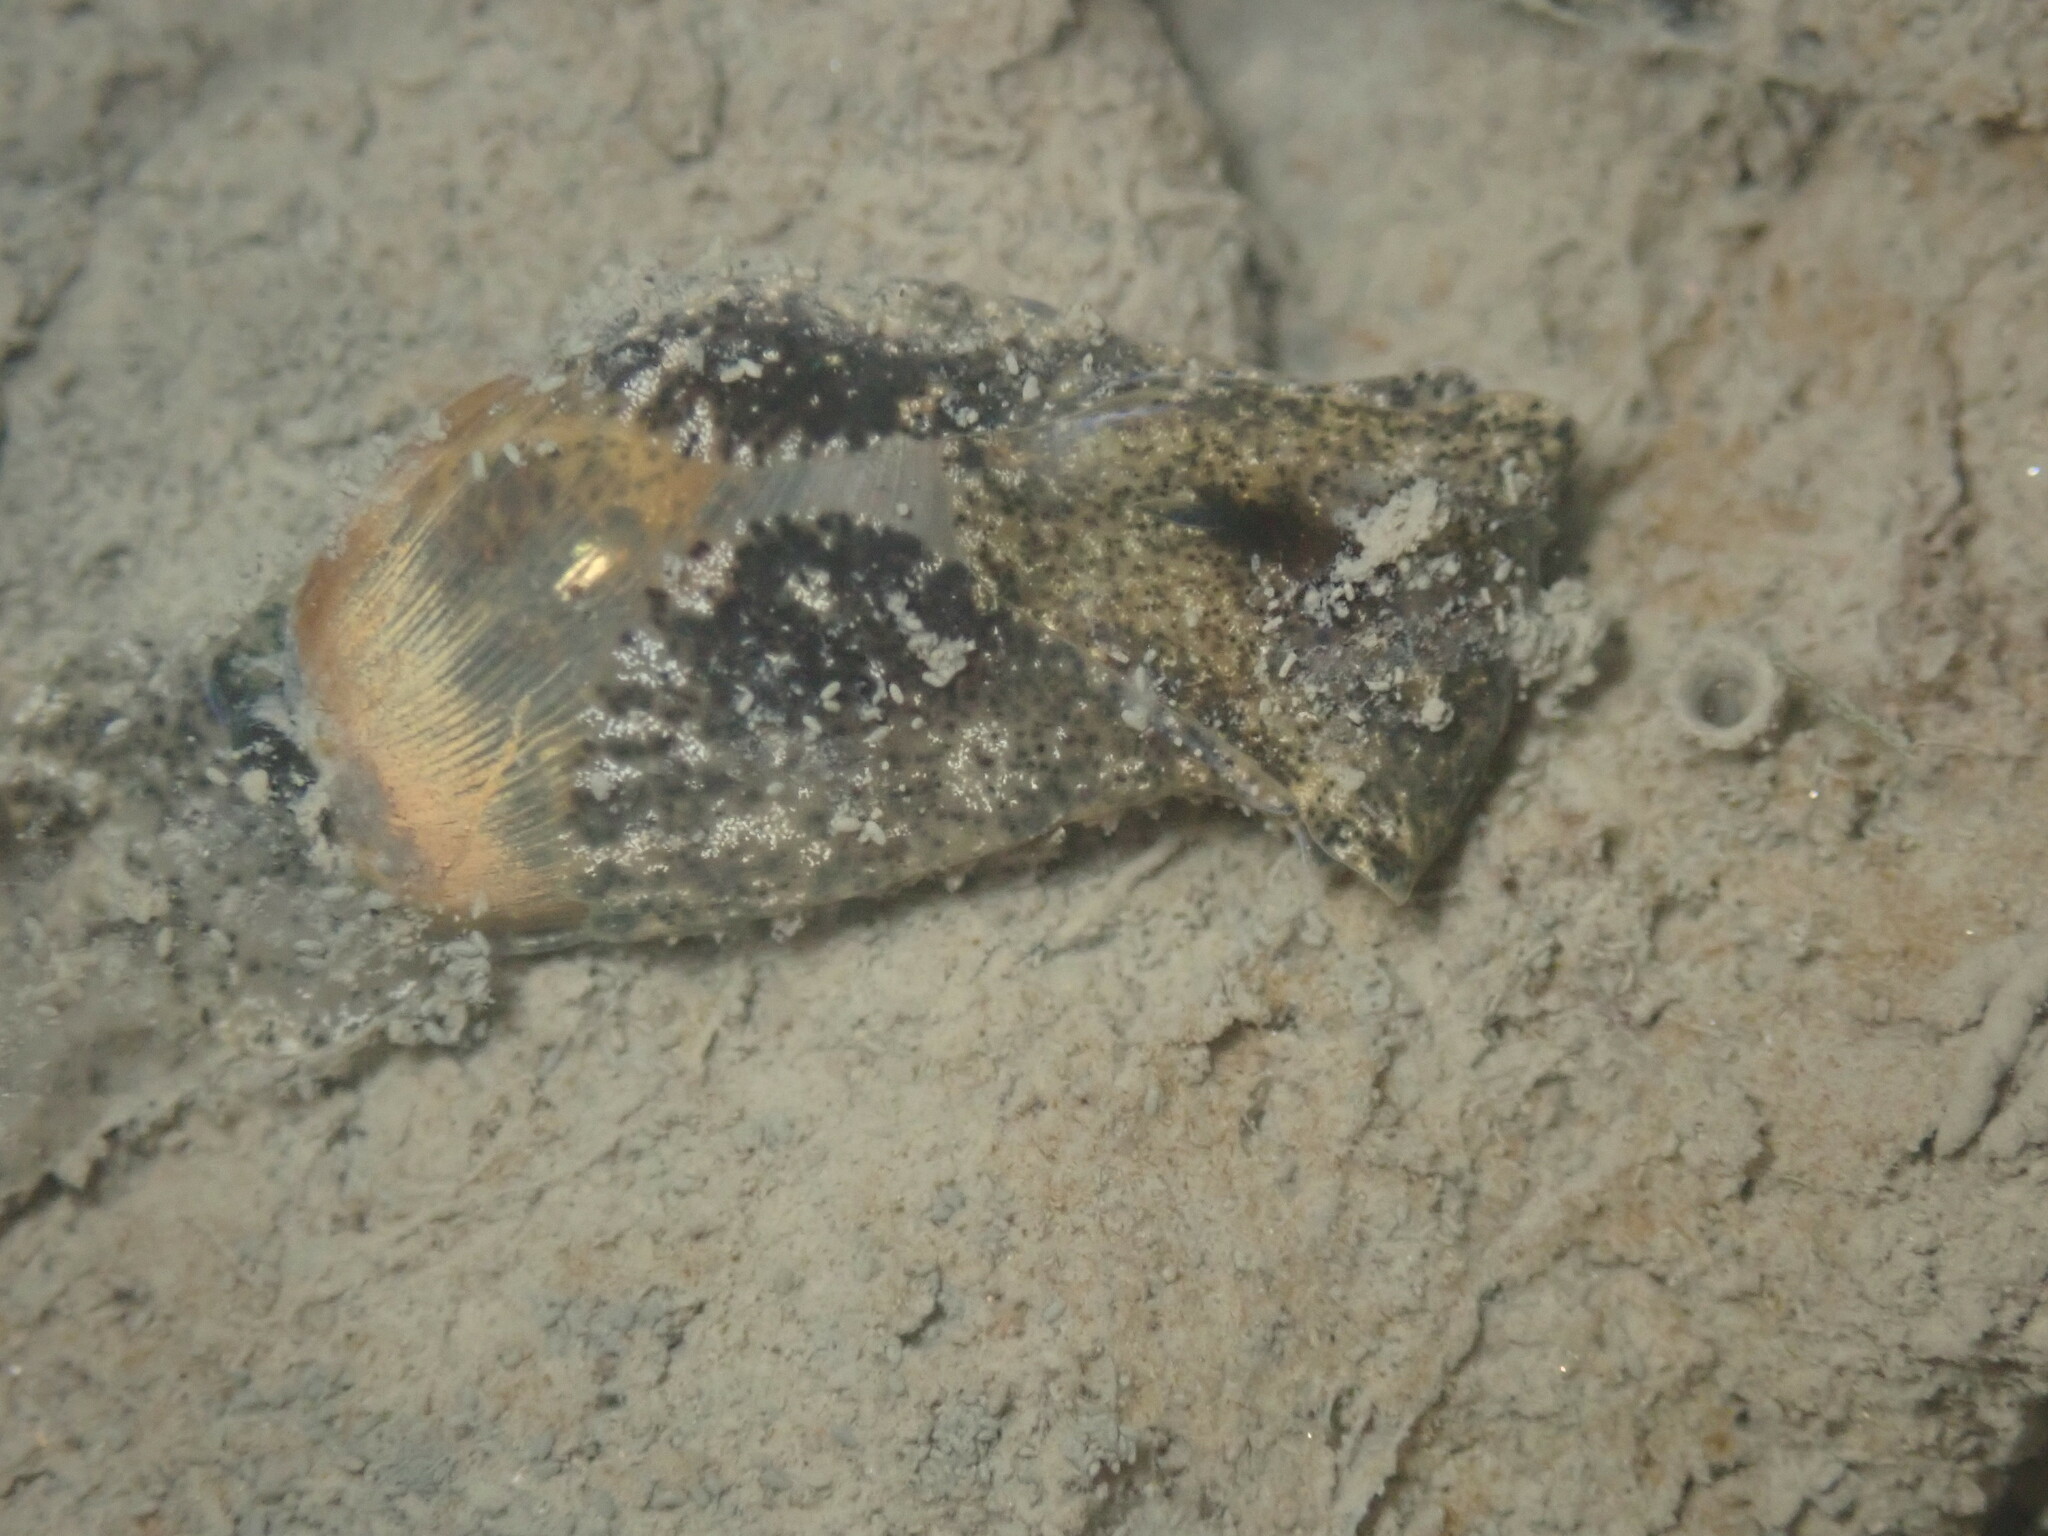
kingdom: Animalia
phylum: Mollusca
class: Gastropoda
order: Cephalaspidea
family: Haminoeidae
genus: Haloa
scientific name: Haloa japonica
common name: Japanese bubble snail
